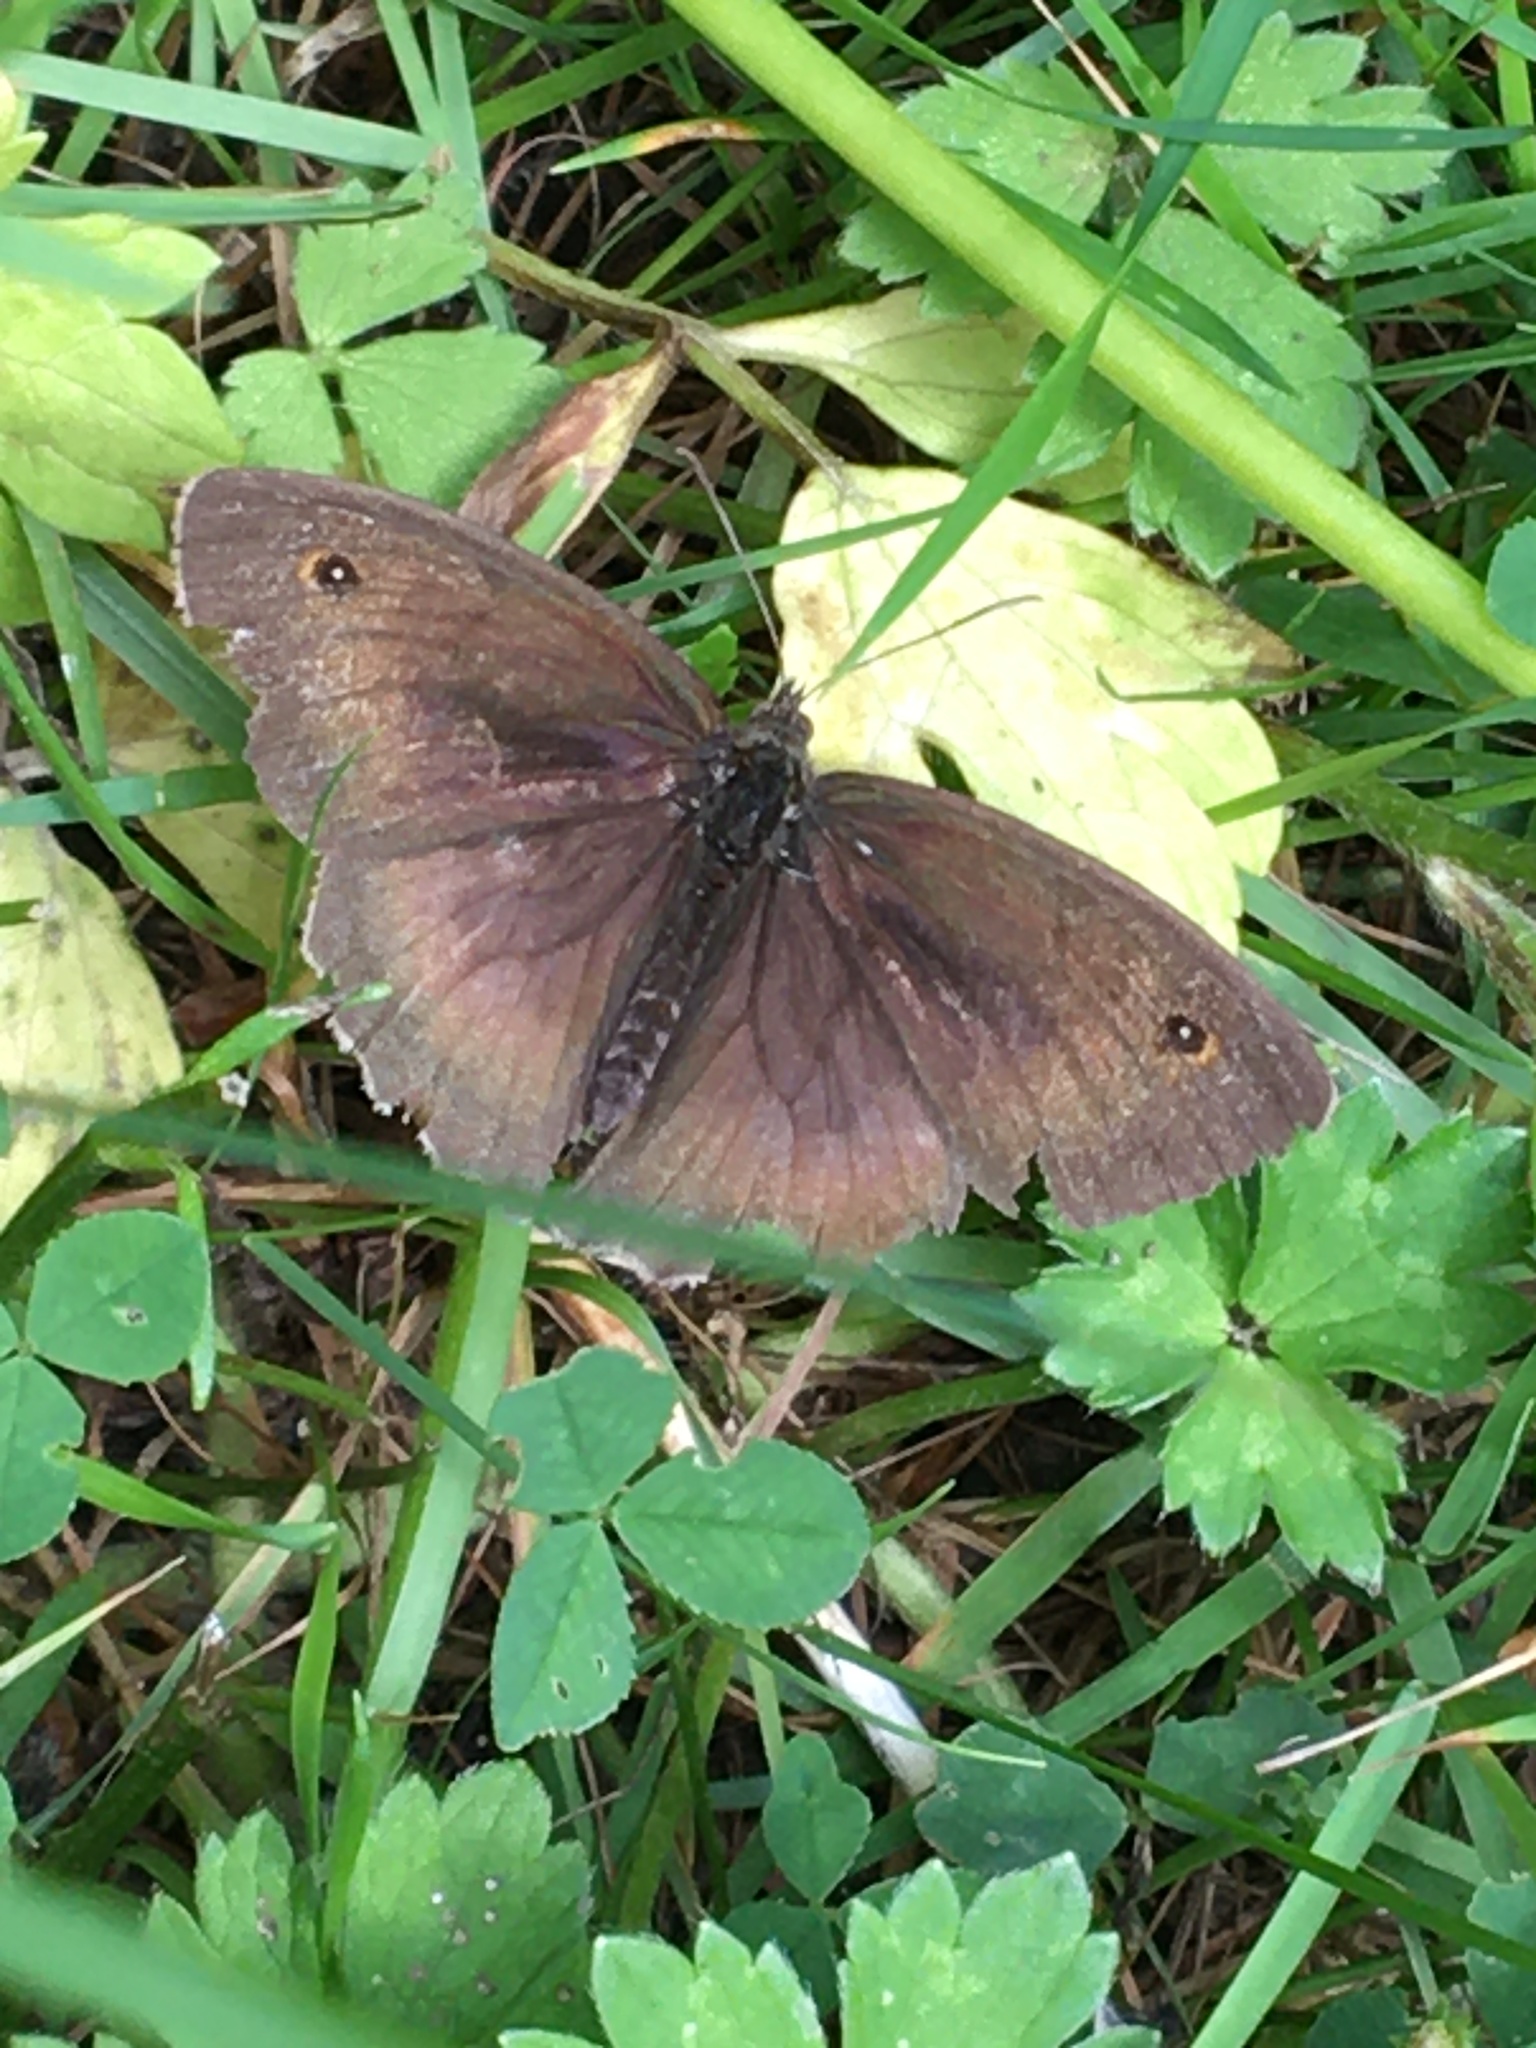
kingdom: Animalia
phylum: Arthropoda
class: Insecta
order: Lepidoptera
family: Nymphalidae
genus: Maniola
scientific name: Maniola jurtina
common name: Meadow brown
